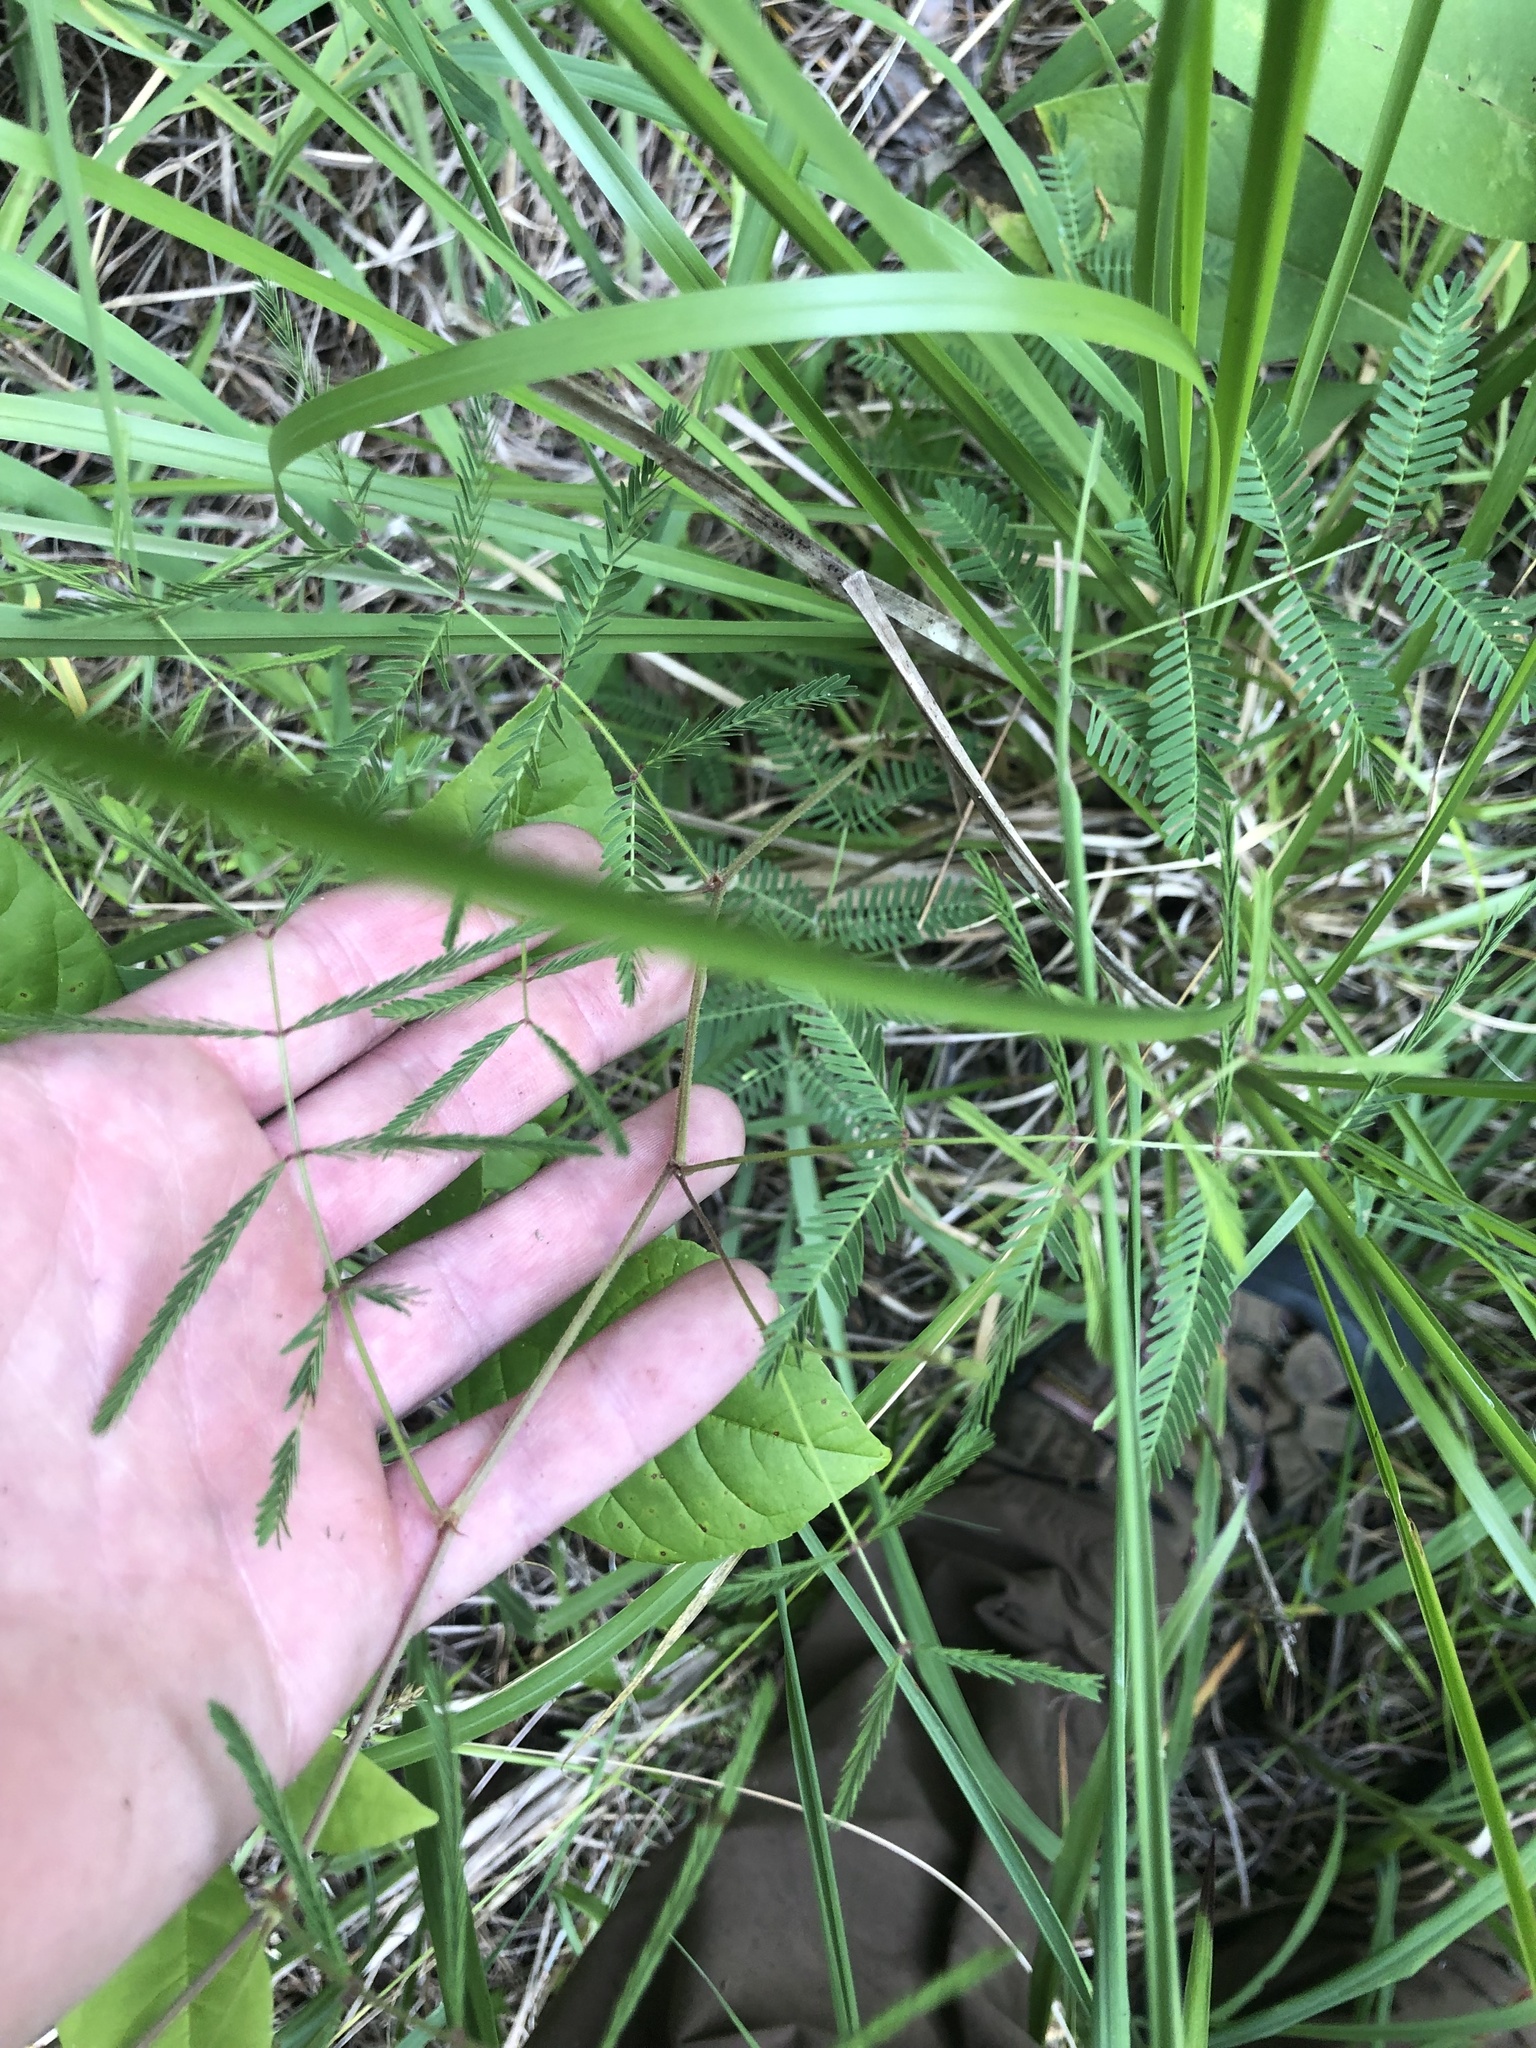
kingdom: Plantae
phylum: Tracheophyta
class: Magnoliopsida
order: Fabales
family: Fabaceae
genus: Neptunia
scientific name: Neptunia lutea
